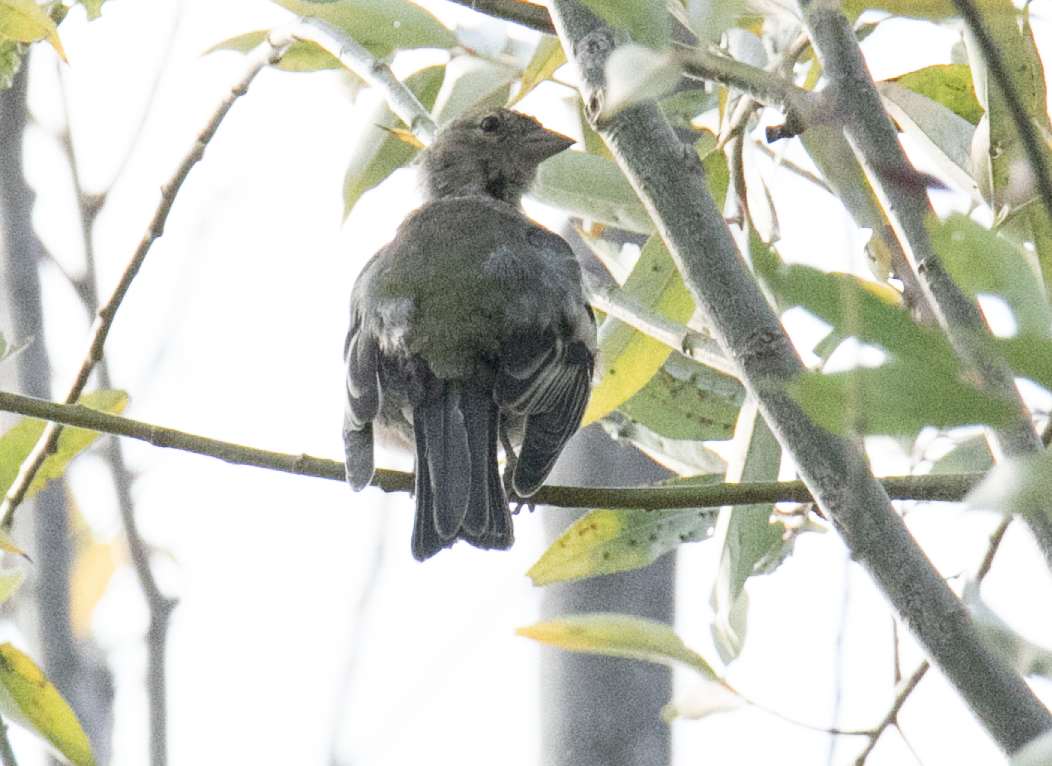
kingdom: Animalia
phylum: Chordata
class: Aves
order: Passeriformes
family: Fringillidae
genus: Fringilla
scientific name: Fringilla coelebs
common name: Common chaffinch
